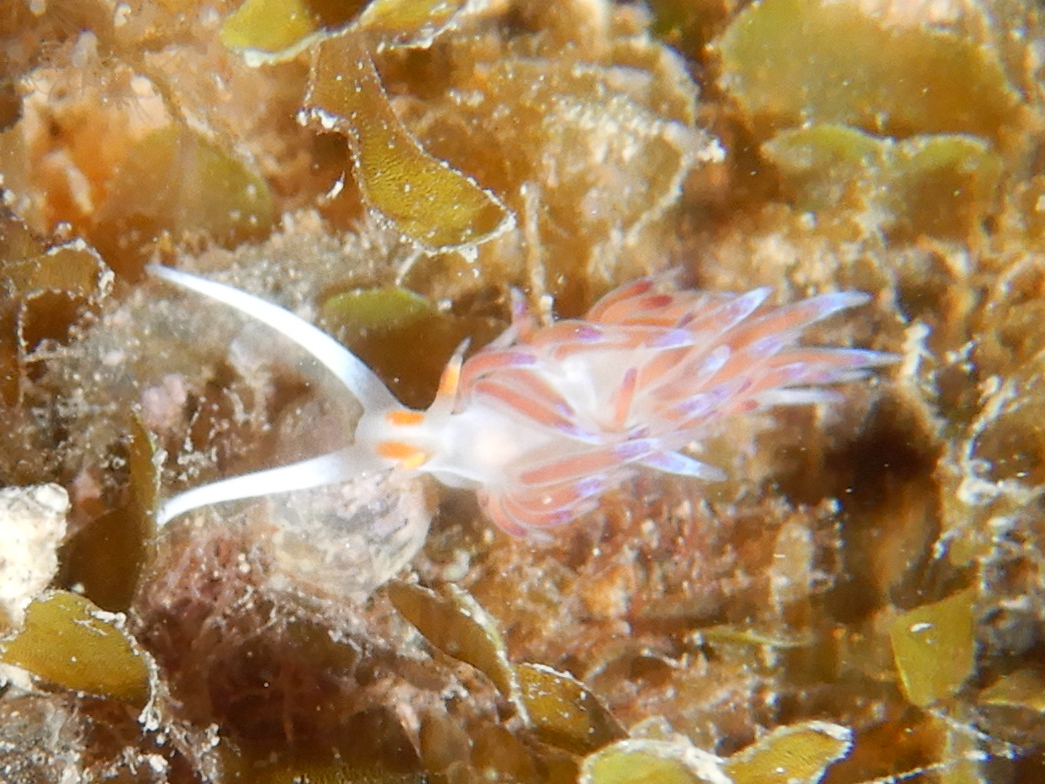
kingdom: Animalia
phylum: Mollusca
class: Gastropoda
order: Nudibranchia
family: Facelinidae
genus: Cratena
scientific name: Cratena peregrina
